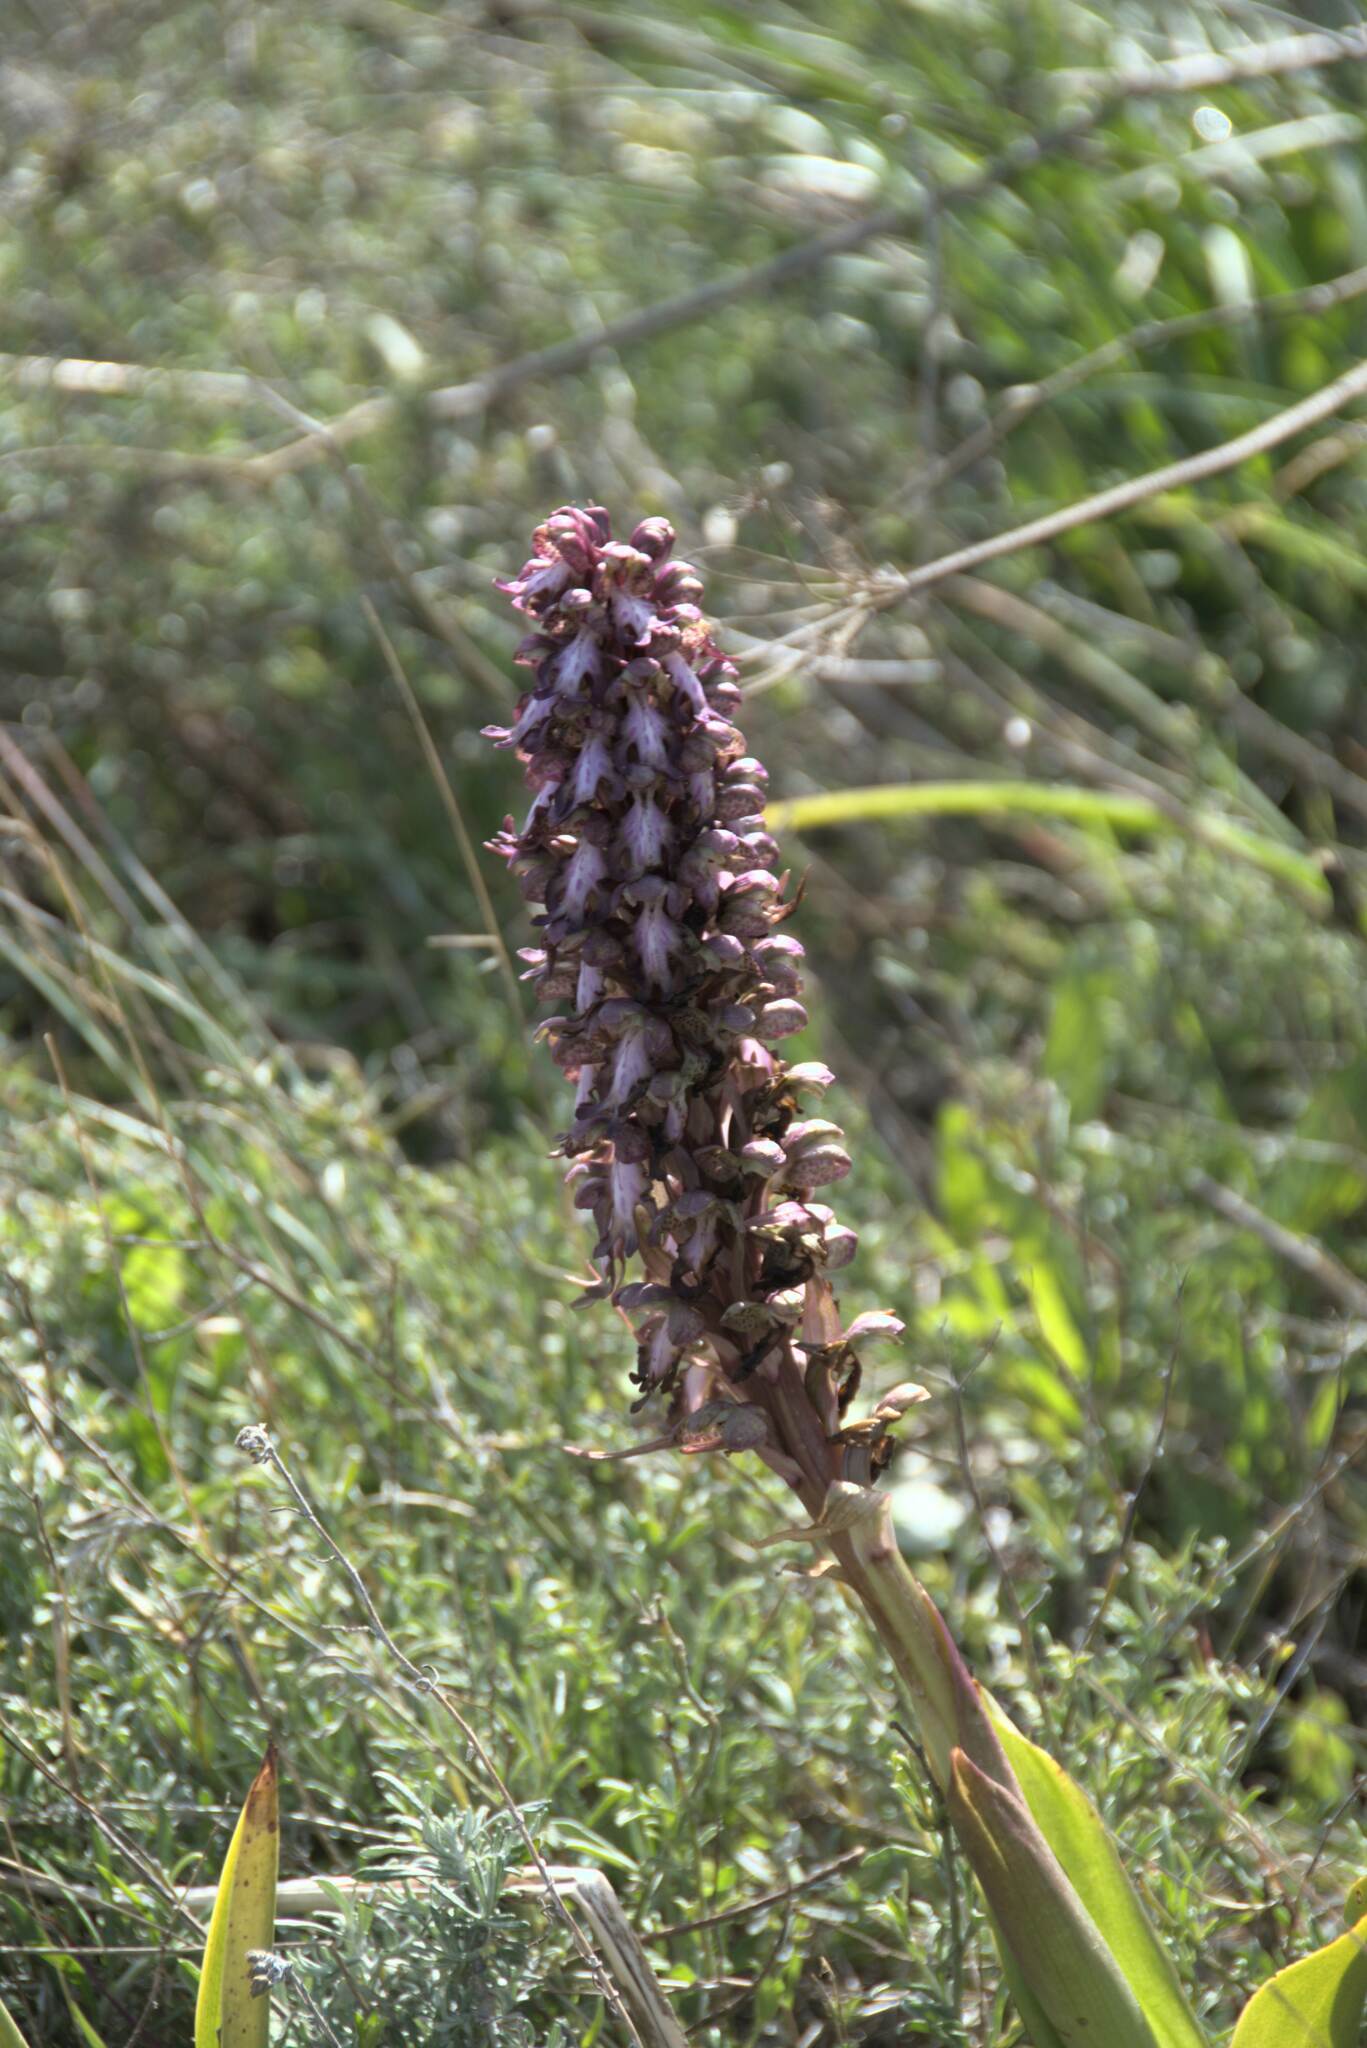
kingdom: Plantae
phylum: Tracheophyta
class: Liliopsida
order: Asparagales
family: Orchidaceae
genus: Himantoglossum
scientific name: Himantoglossum robertianum
